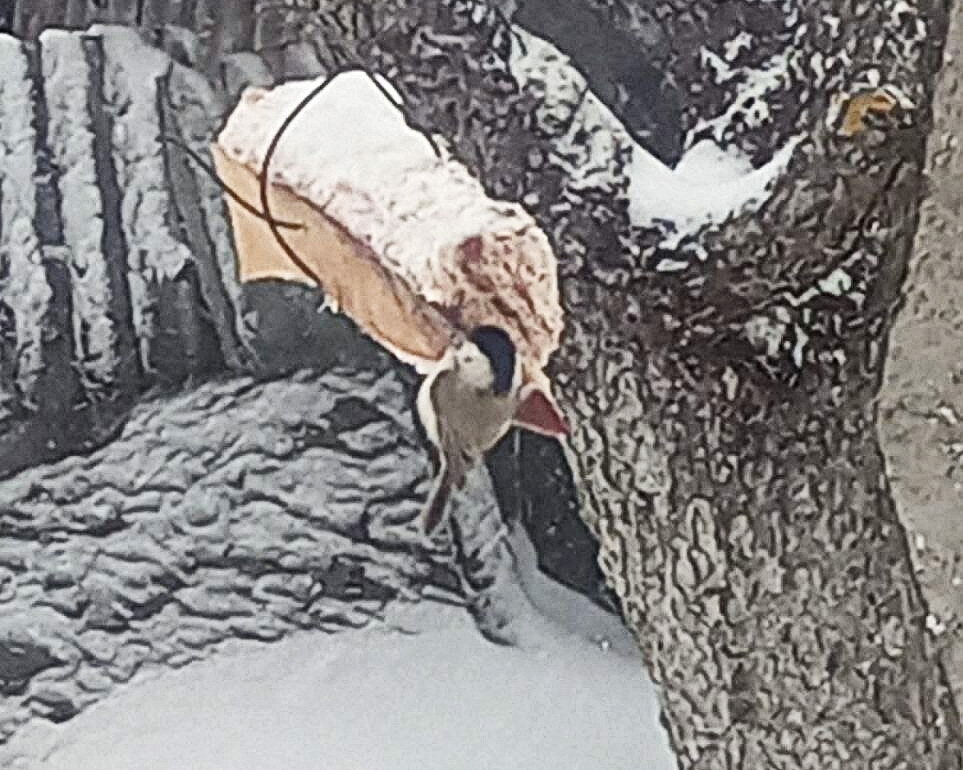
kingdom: Animalia
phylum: Chordata
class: Aves
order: Passeriformes
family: Paridae
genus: Poecile
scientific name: Poecile palustris
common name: Marsh tit
